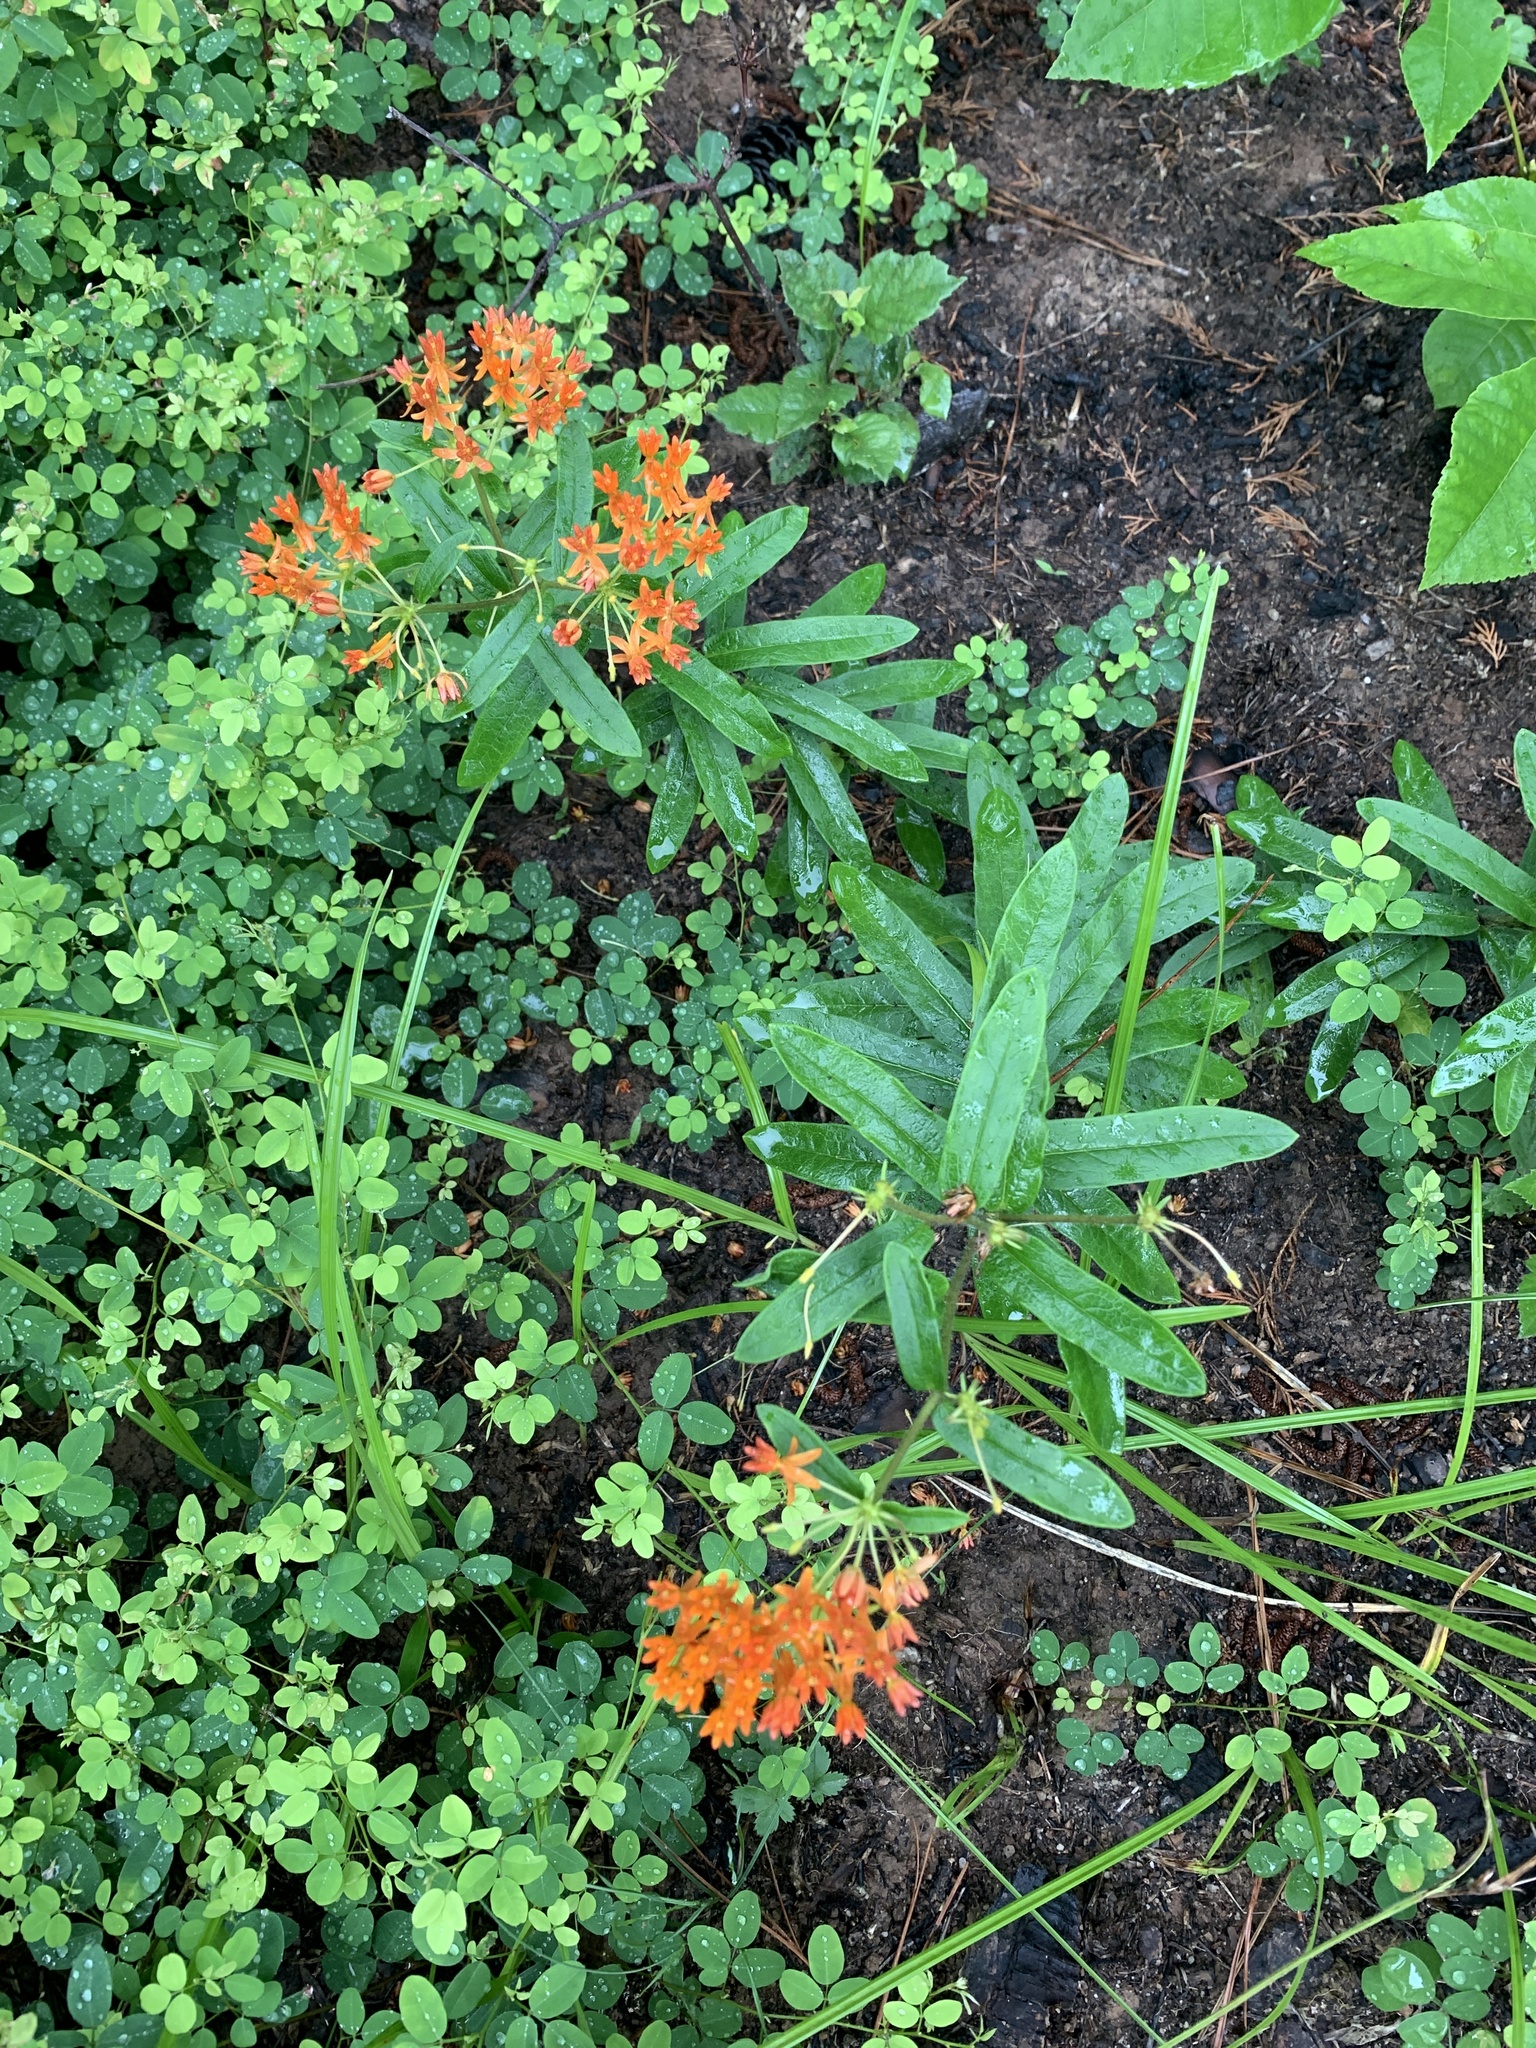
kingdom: Plantae
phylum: Tracheophyta
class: Magnoliopsida
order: Gentianales
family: Apocynaceae
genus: Asclepias
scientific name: Asclepias tuberosa
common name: Butterfly milkweed
